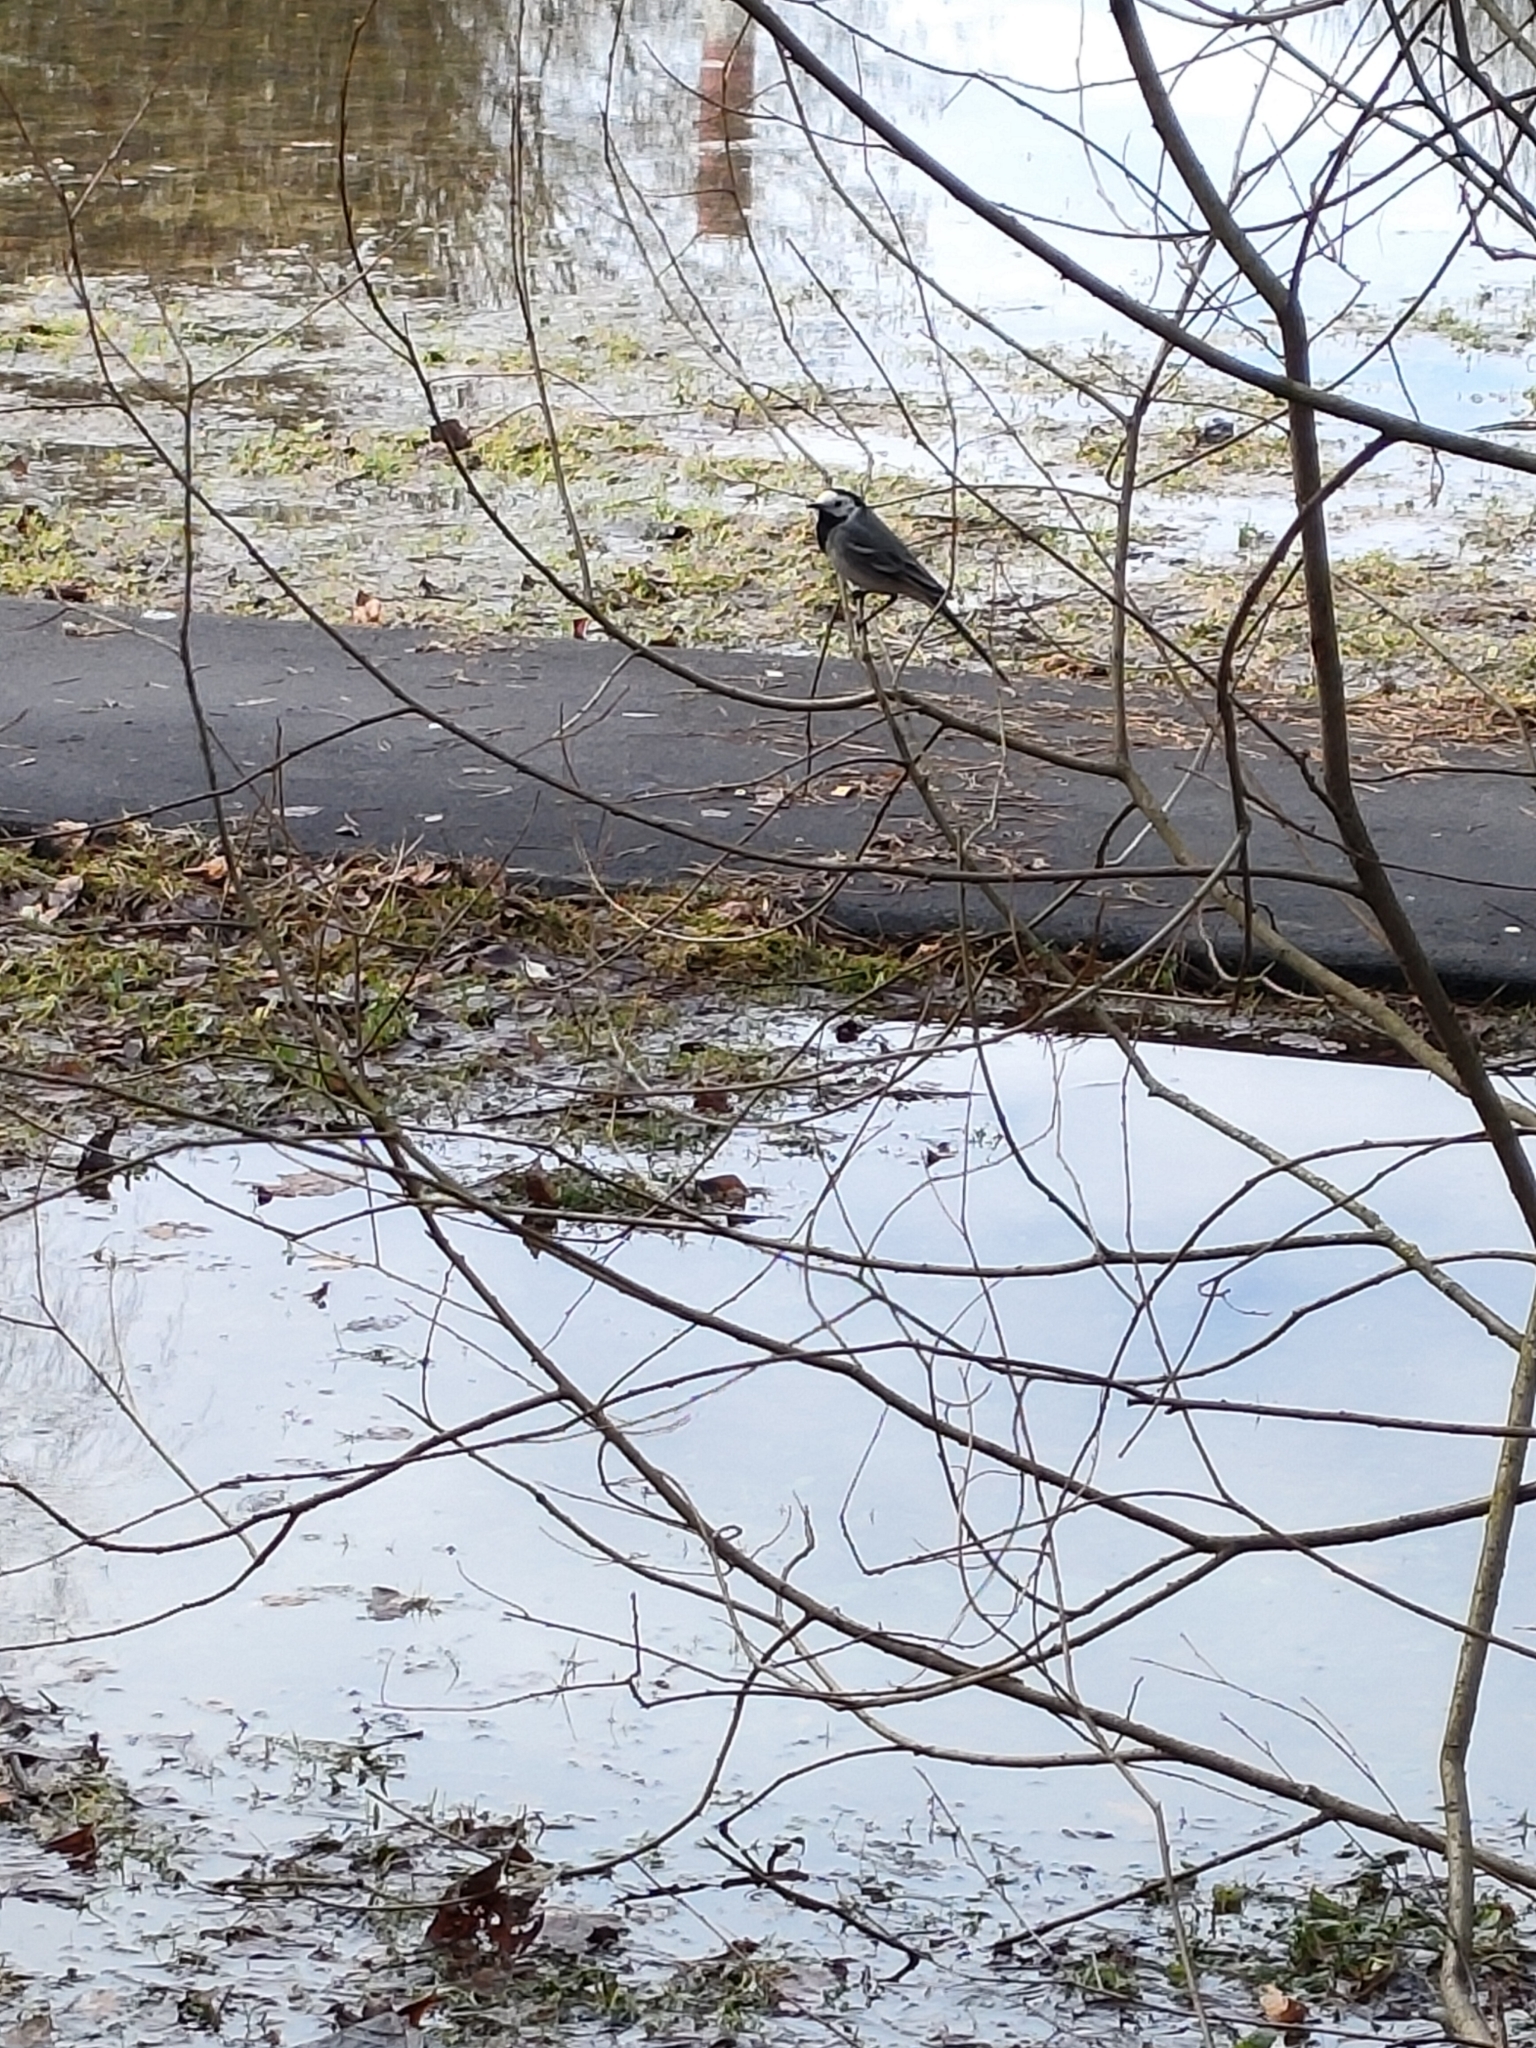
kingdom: Animalia
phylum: Chordata
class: Aves
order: Passeriformes
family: Motacillidae
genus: Motacilla
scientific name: Motacilla alba
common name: White wagtail
